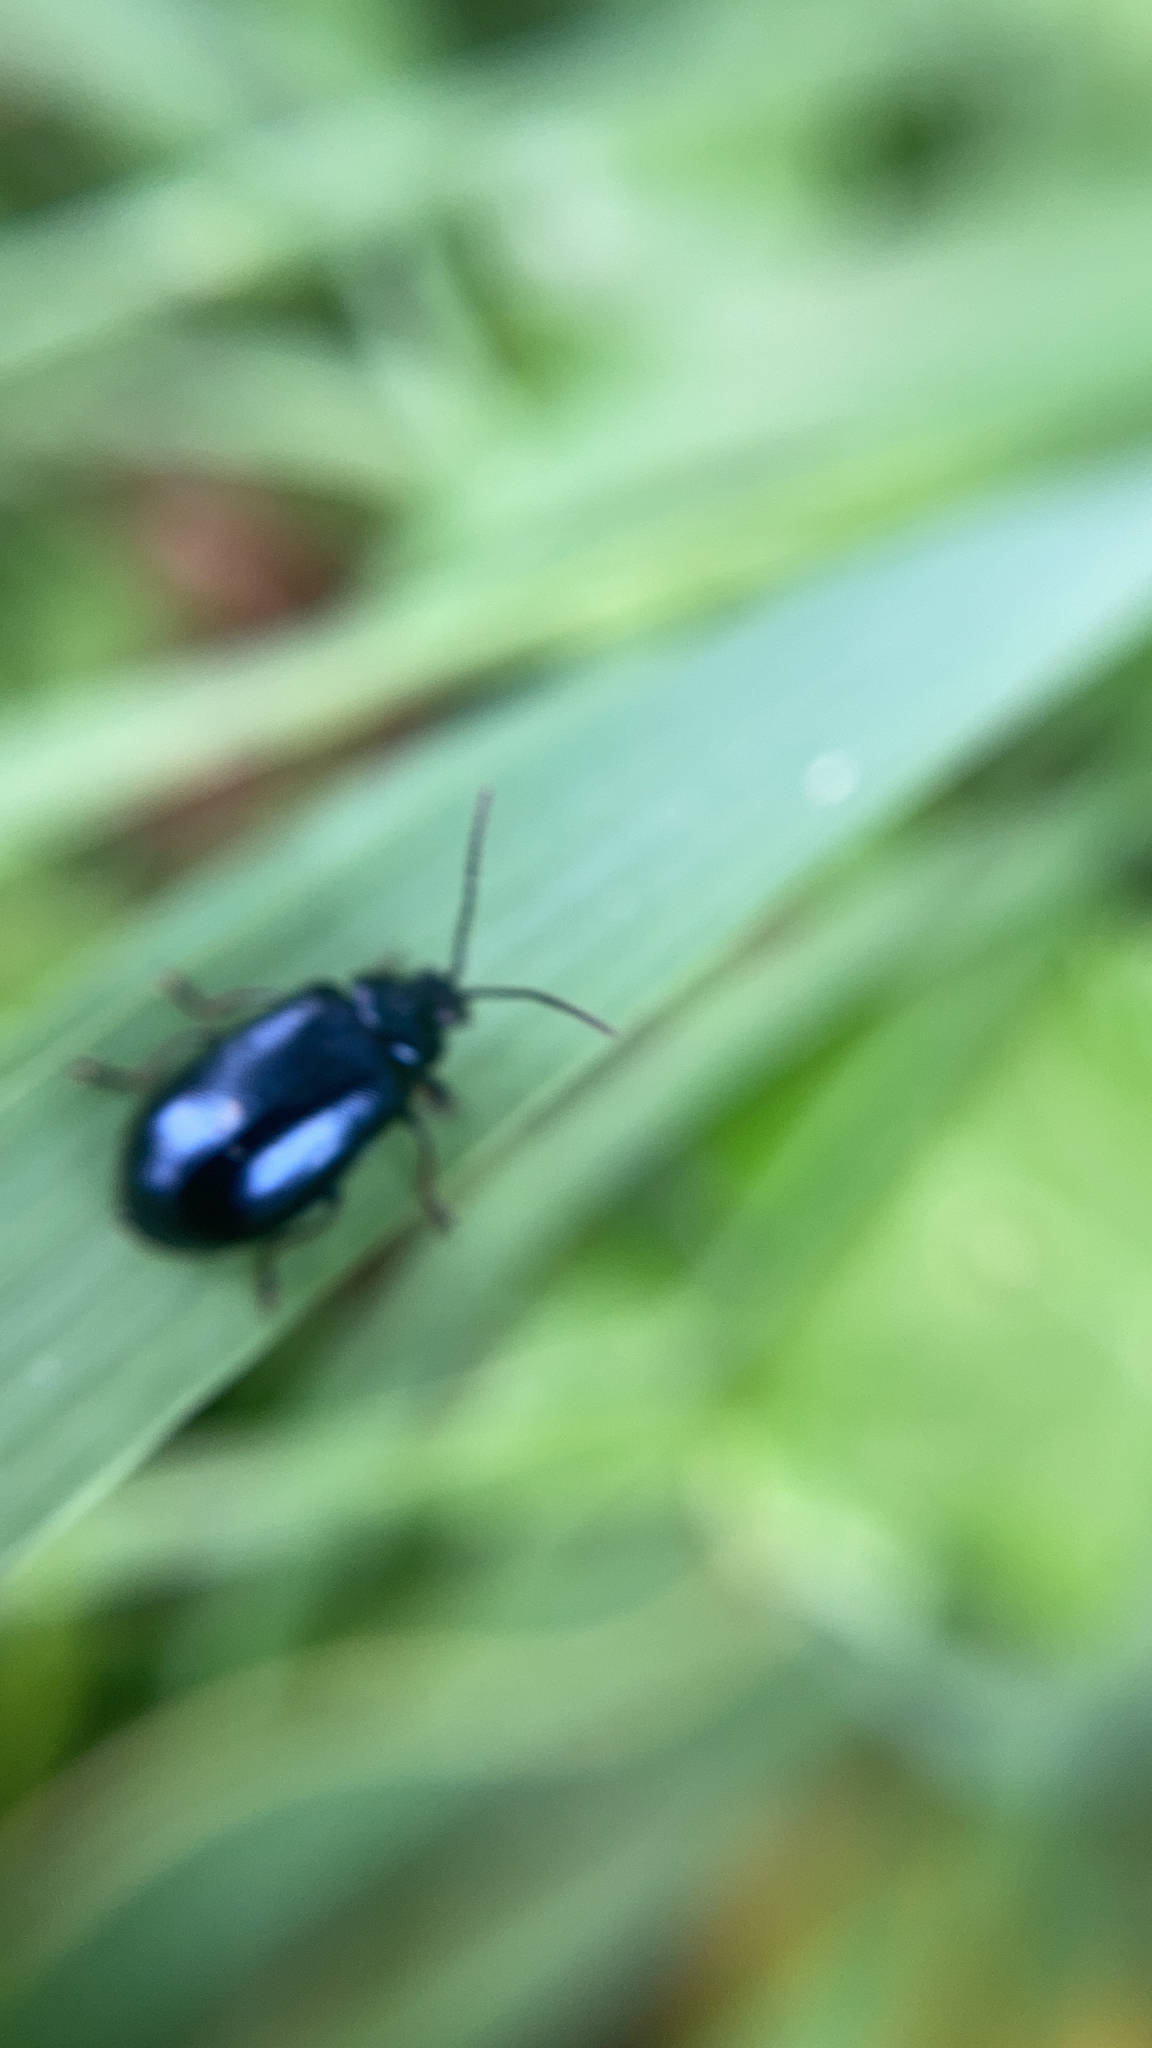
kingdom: Animalia
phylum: Arthropoda
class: Insecta
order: Coleoptera
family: Chrysomelidae
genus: Agelastica
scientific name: Agelastica alni
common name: Alder leaf beetle
